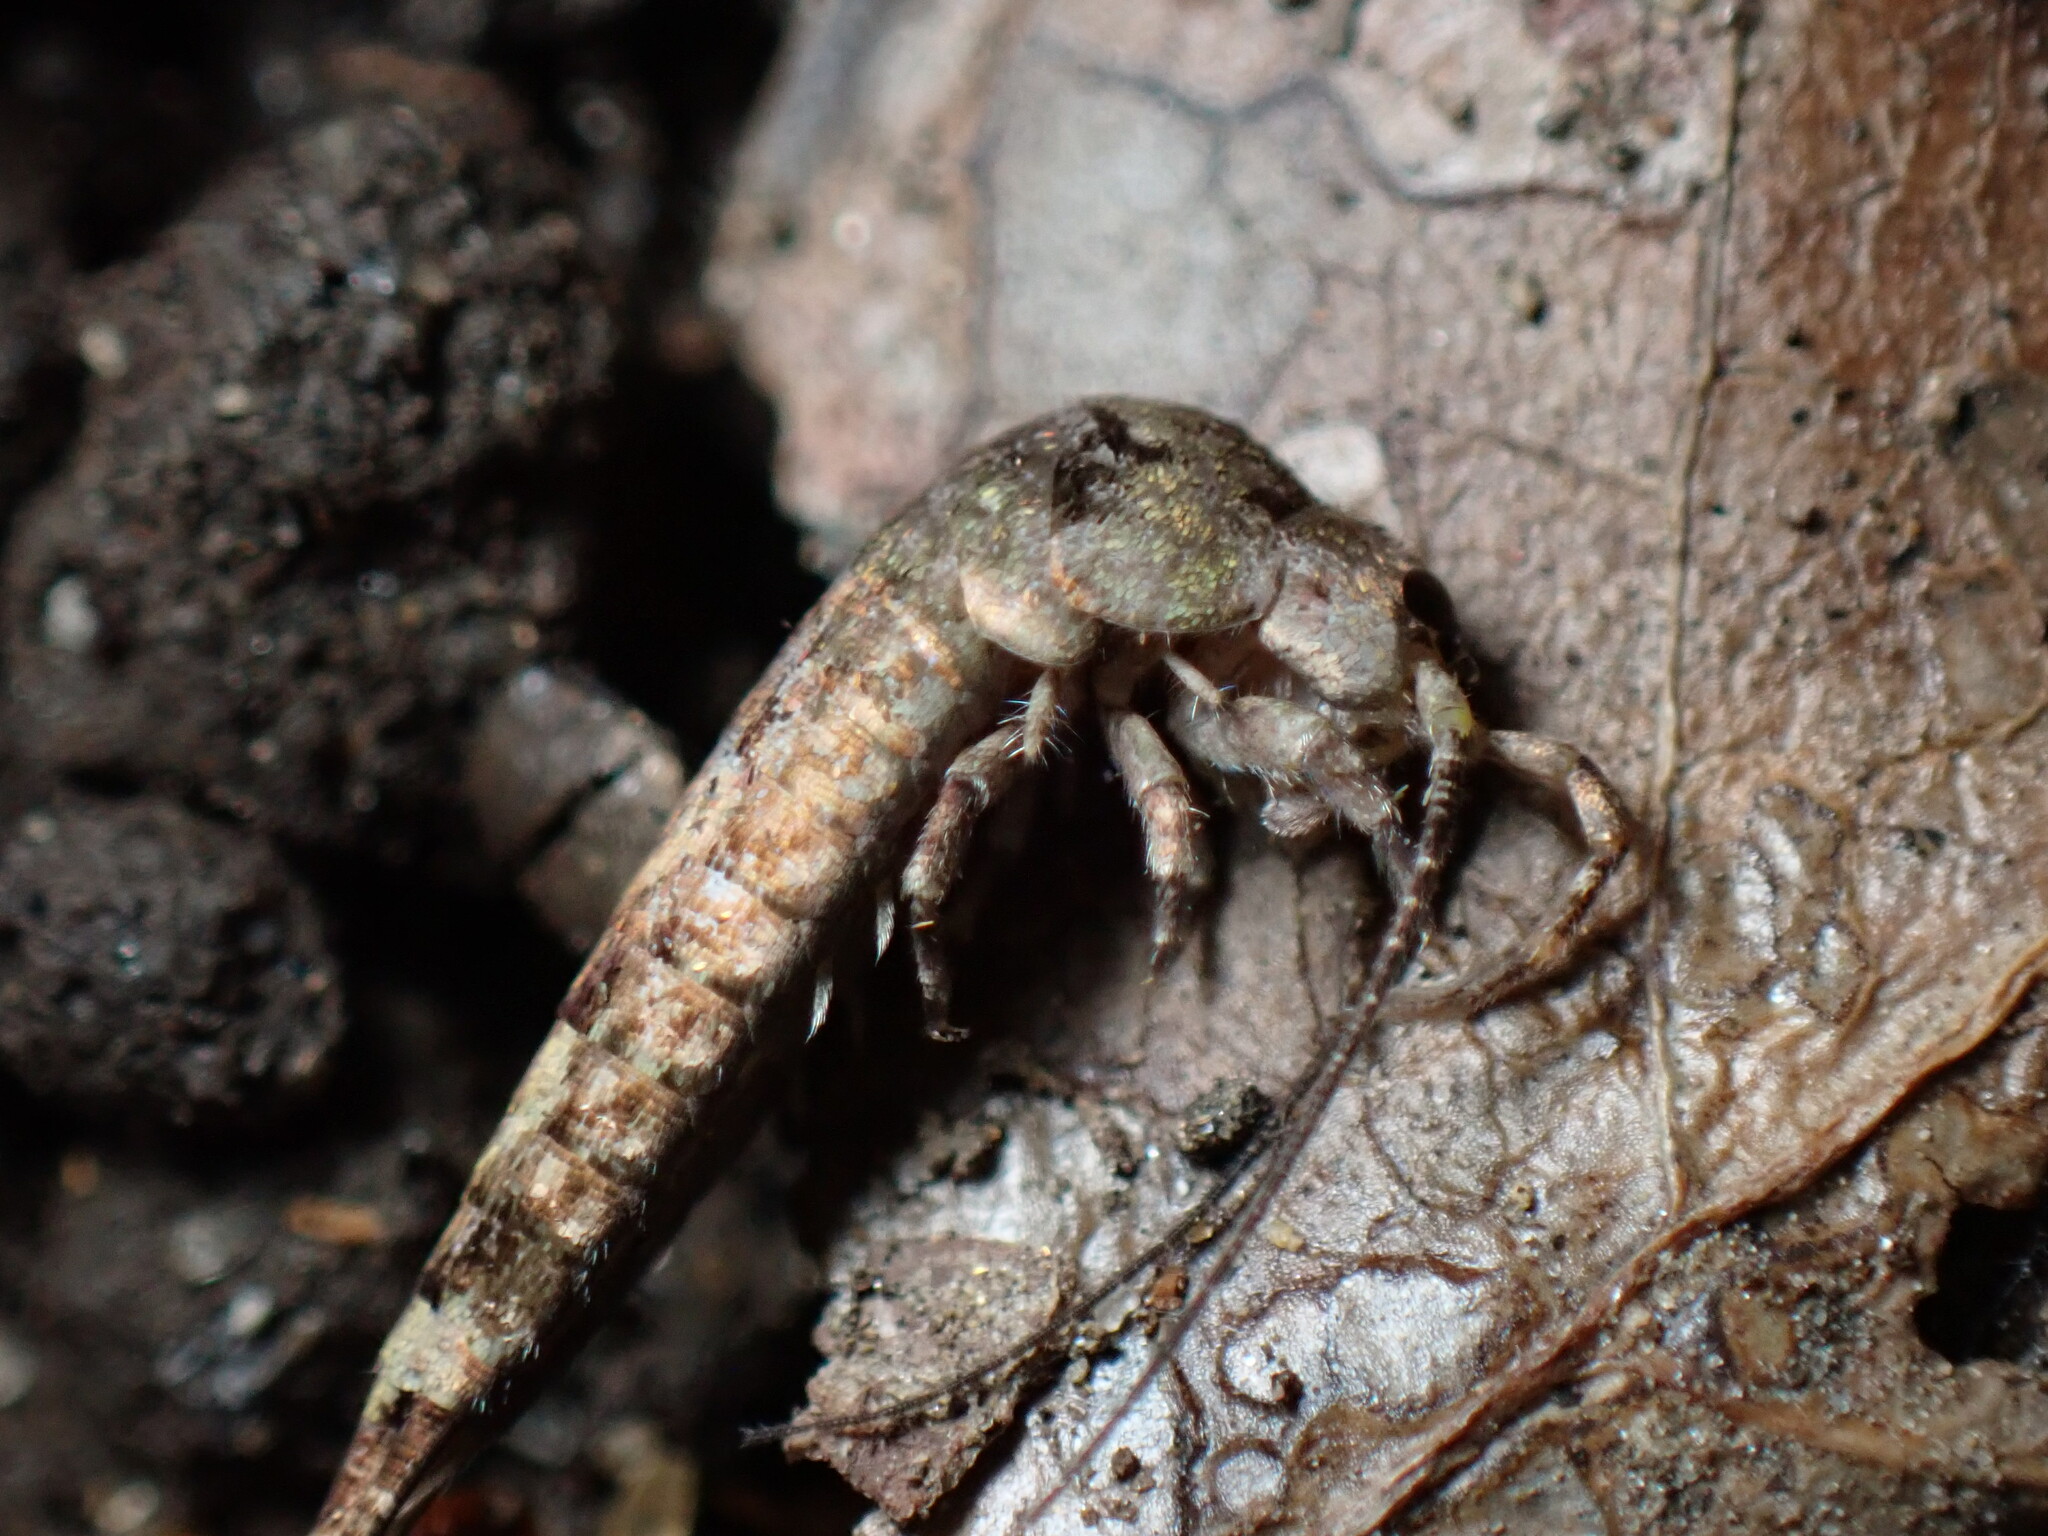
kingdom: Animalia
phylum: Arthropoda
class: Insecta
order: Archaeognatha
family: Machilidae
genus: Trigoniophthalmus
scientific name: Trigoniophthalmus alternatus
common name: Jumping bristletail
